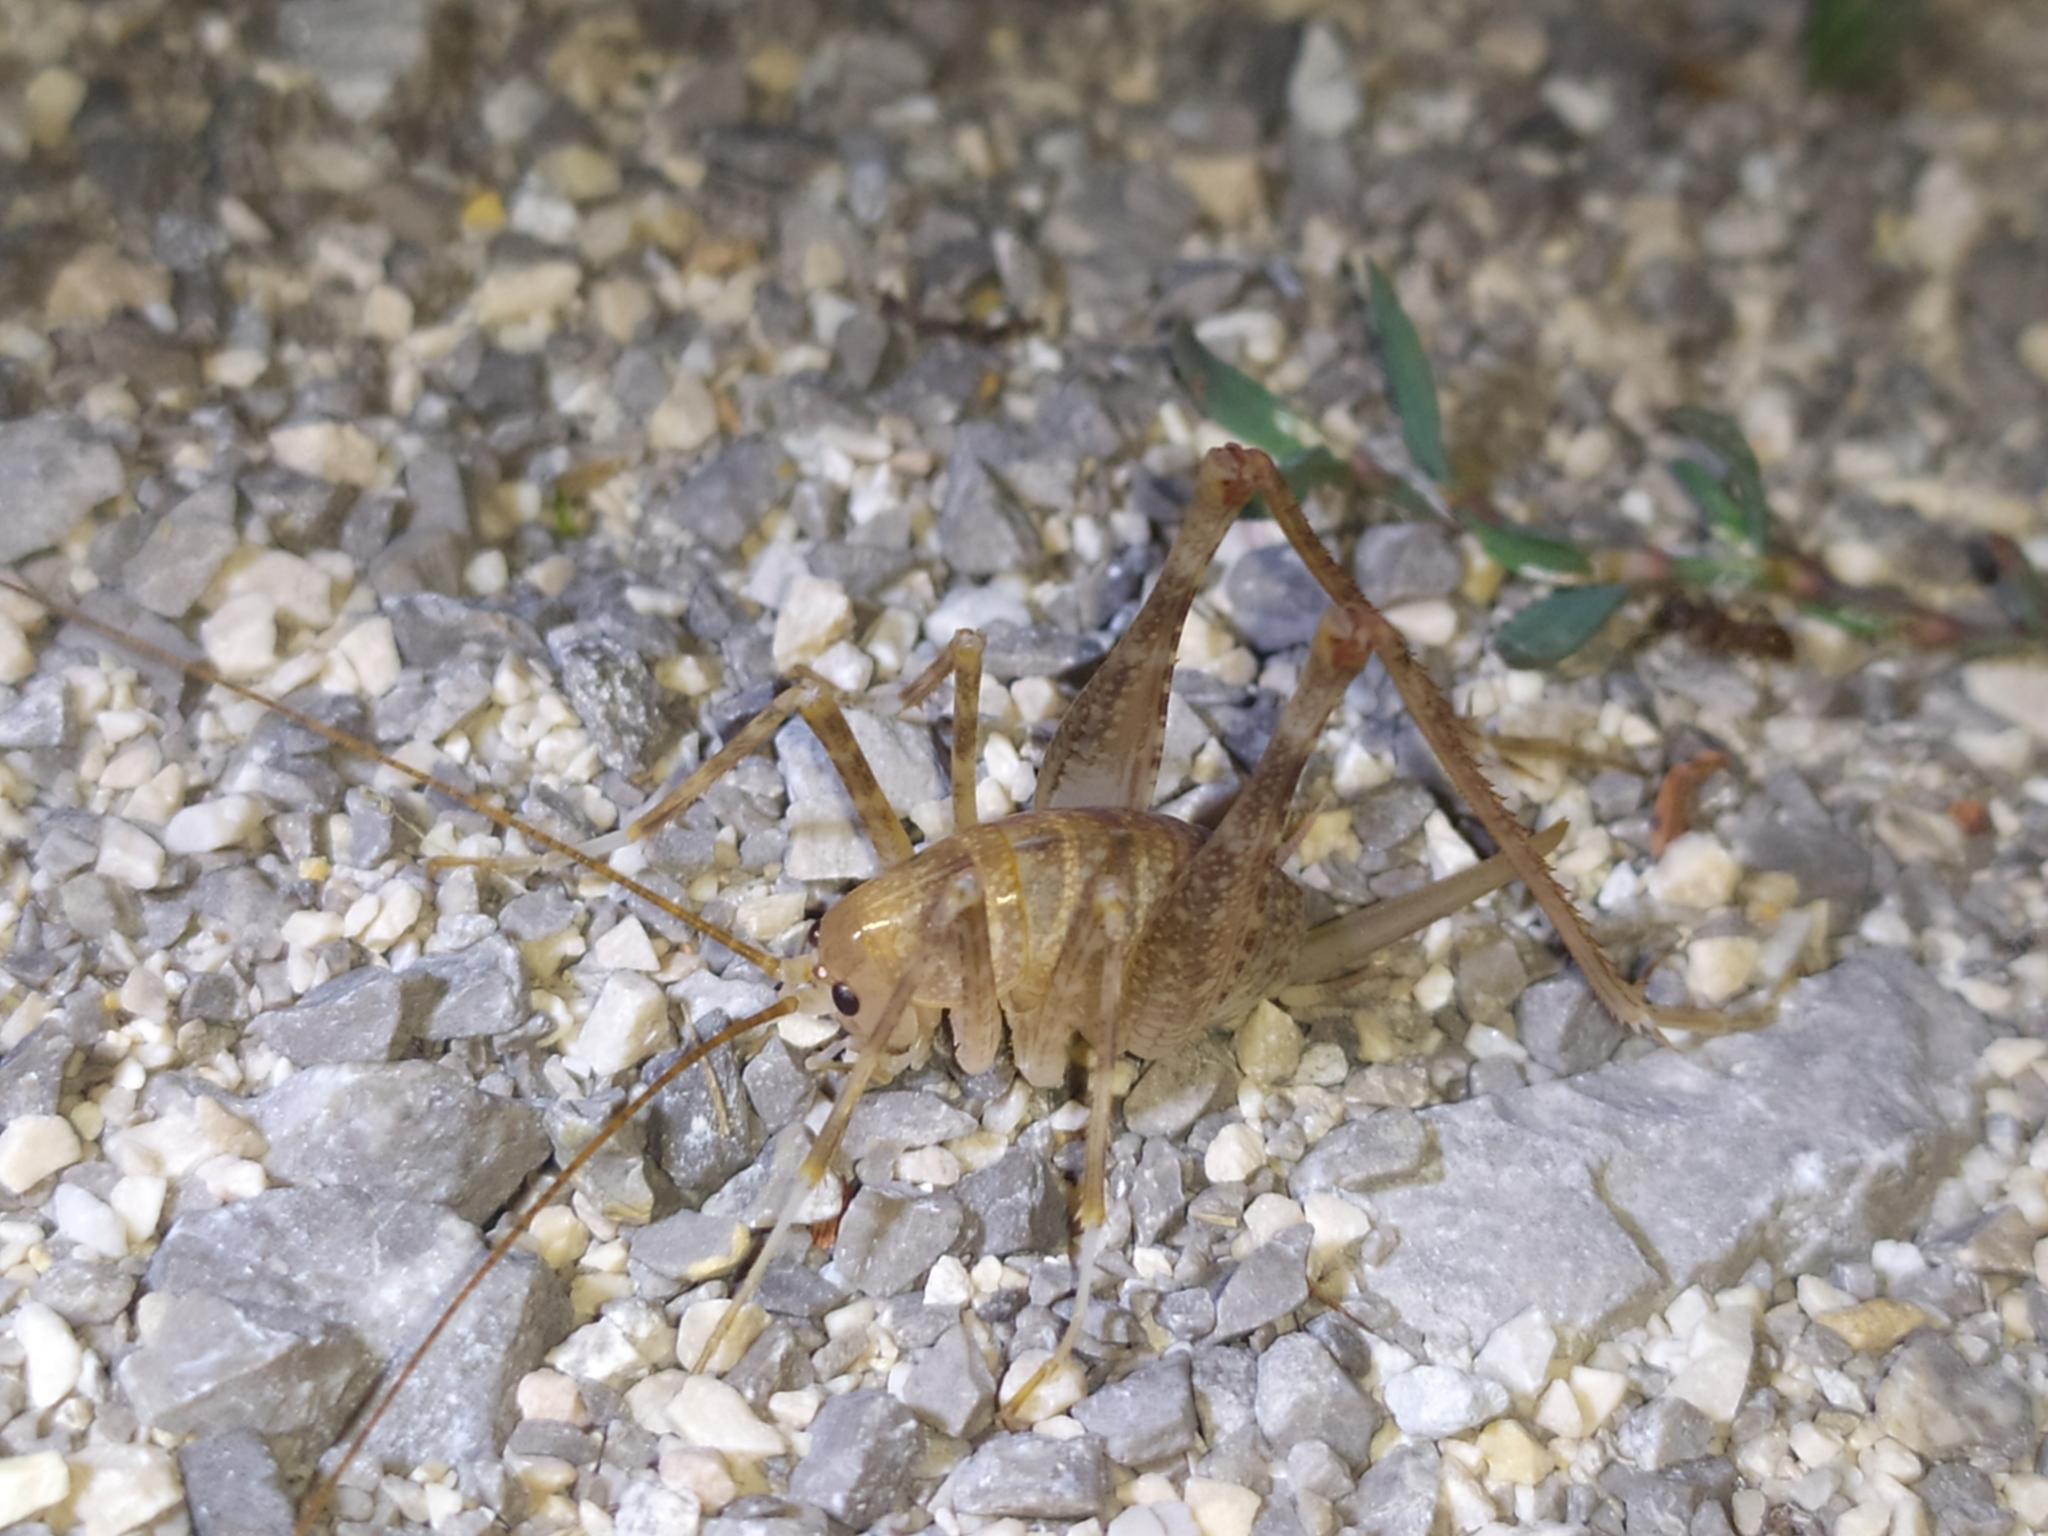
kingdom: Animalia
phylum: Arthropoda
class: Insecta
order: Orthoptera
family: Rhaphidophoridae
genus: Troglophilus
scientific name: Troglophilus cavicola
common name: Common cave-cricket
